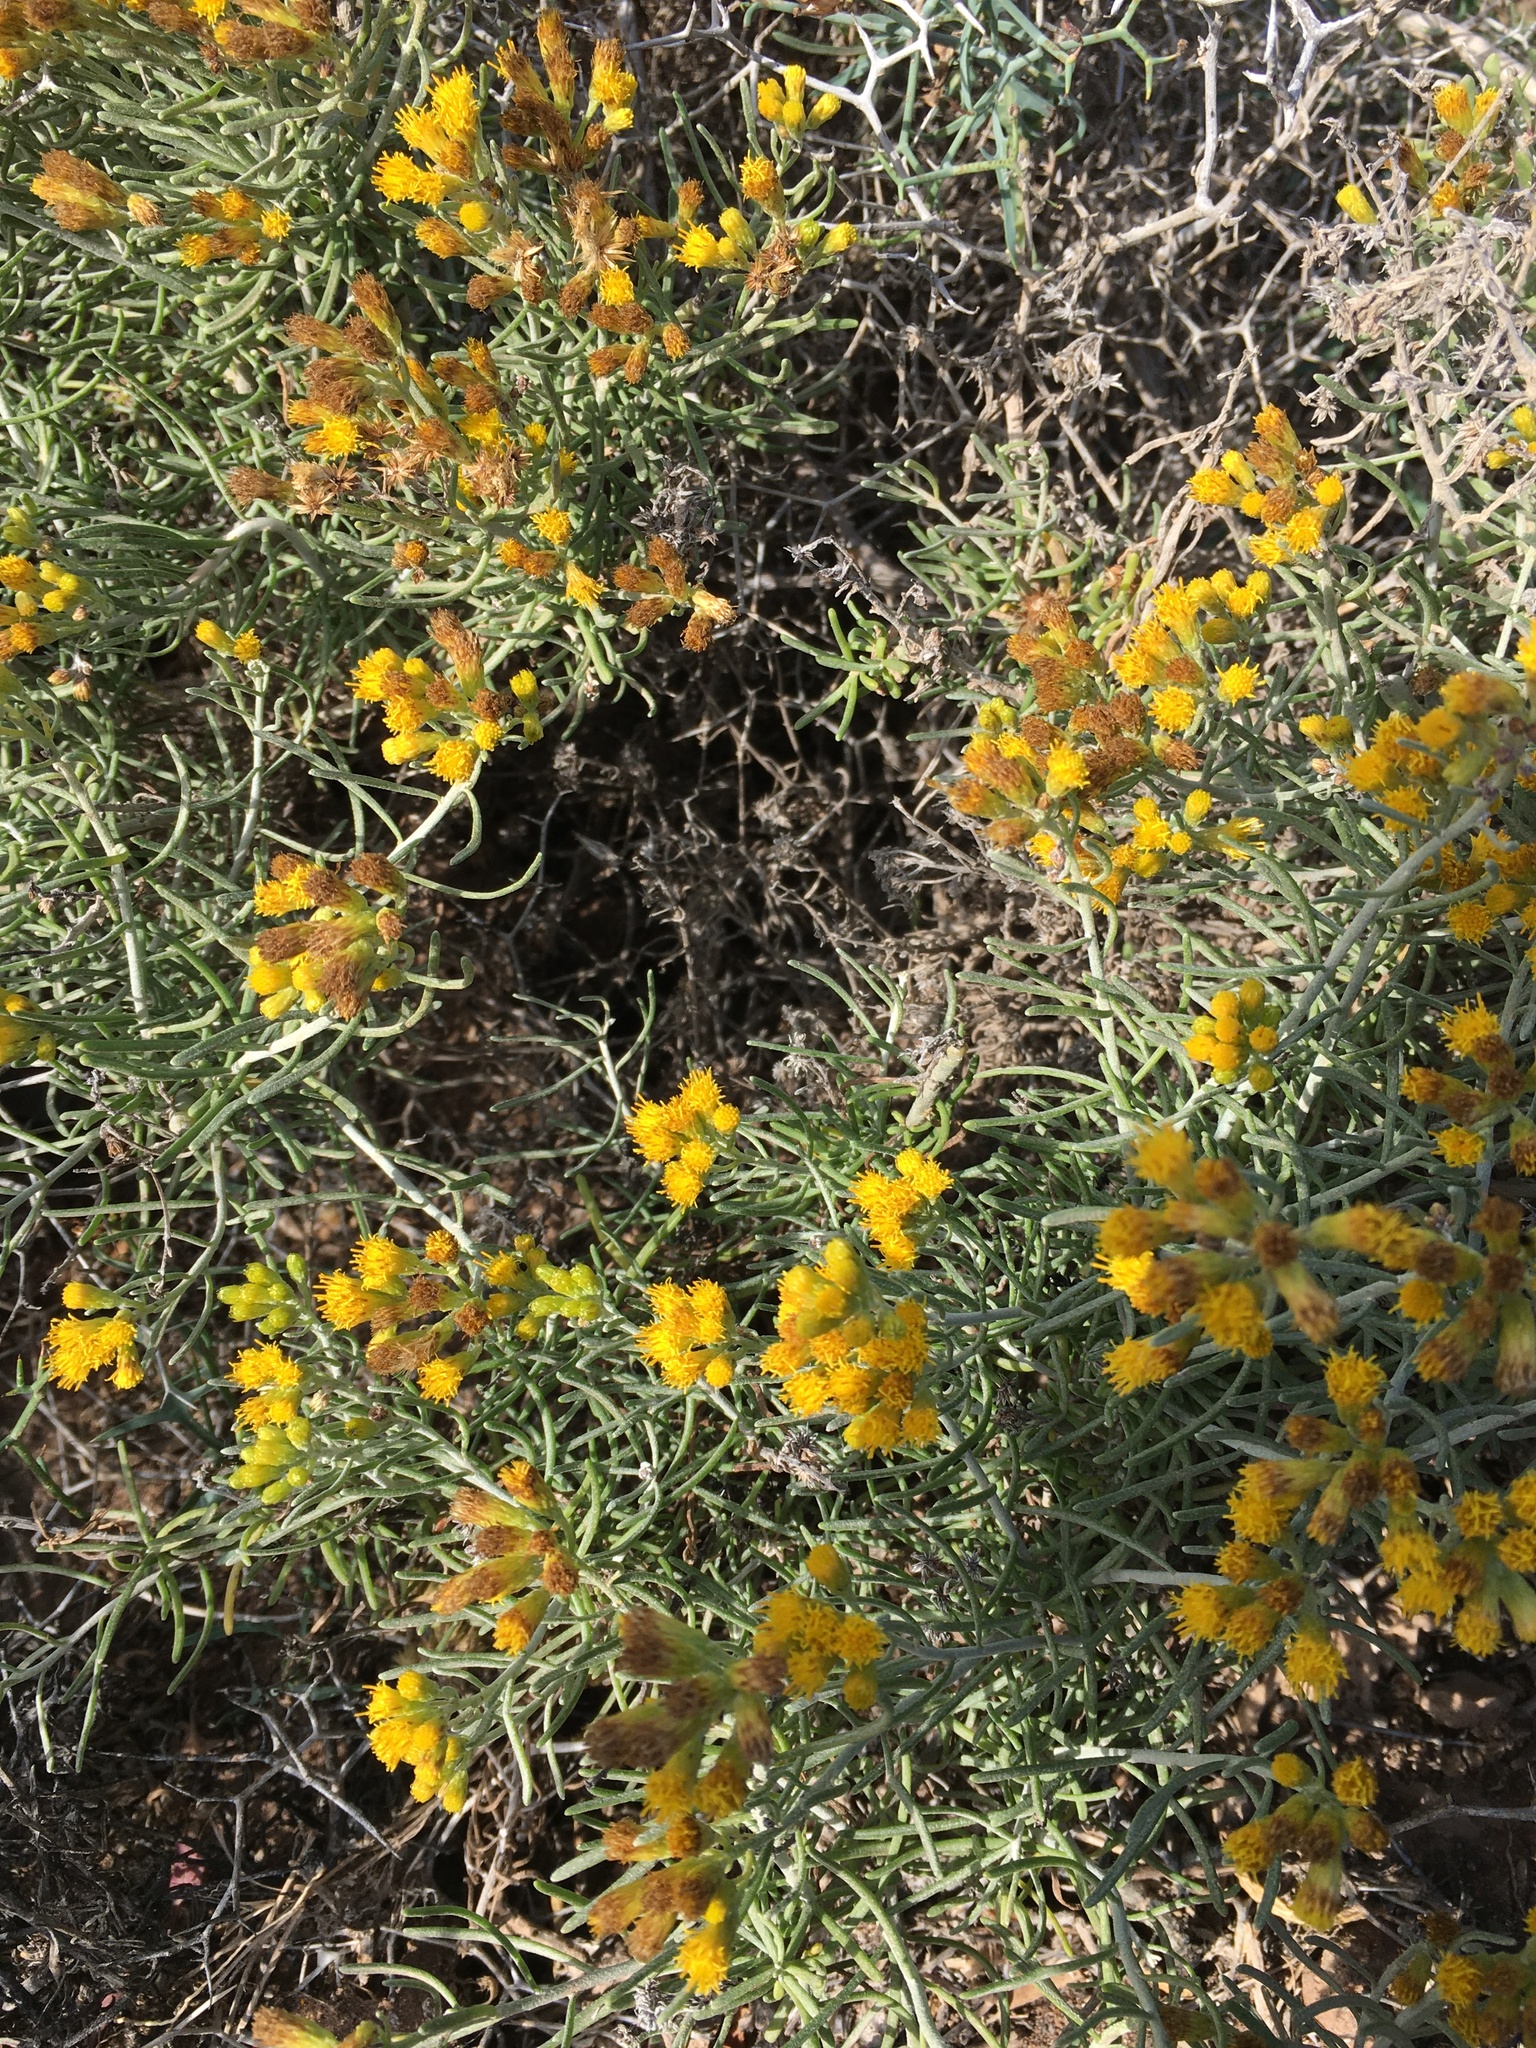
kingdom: Plantae
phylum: Tracheophyta
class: Magnoliopsida
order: Asterales
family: Asteraceae
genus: Schizogyne
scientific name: Schizogyne sericea
